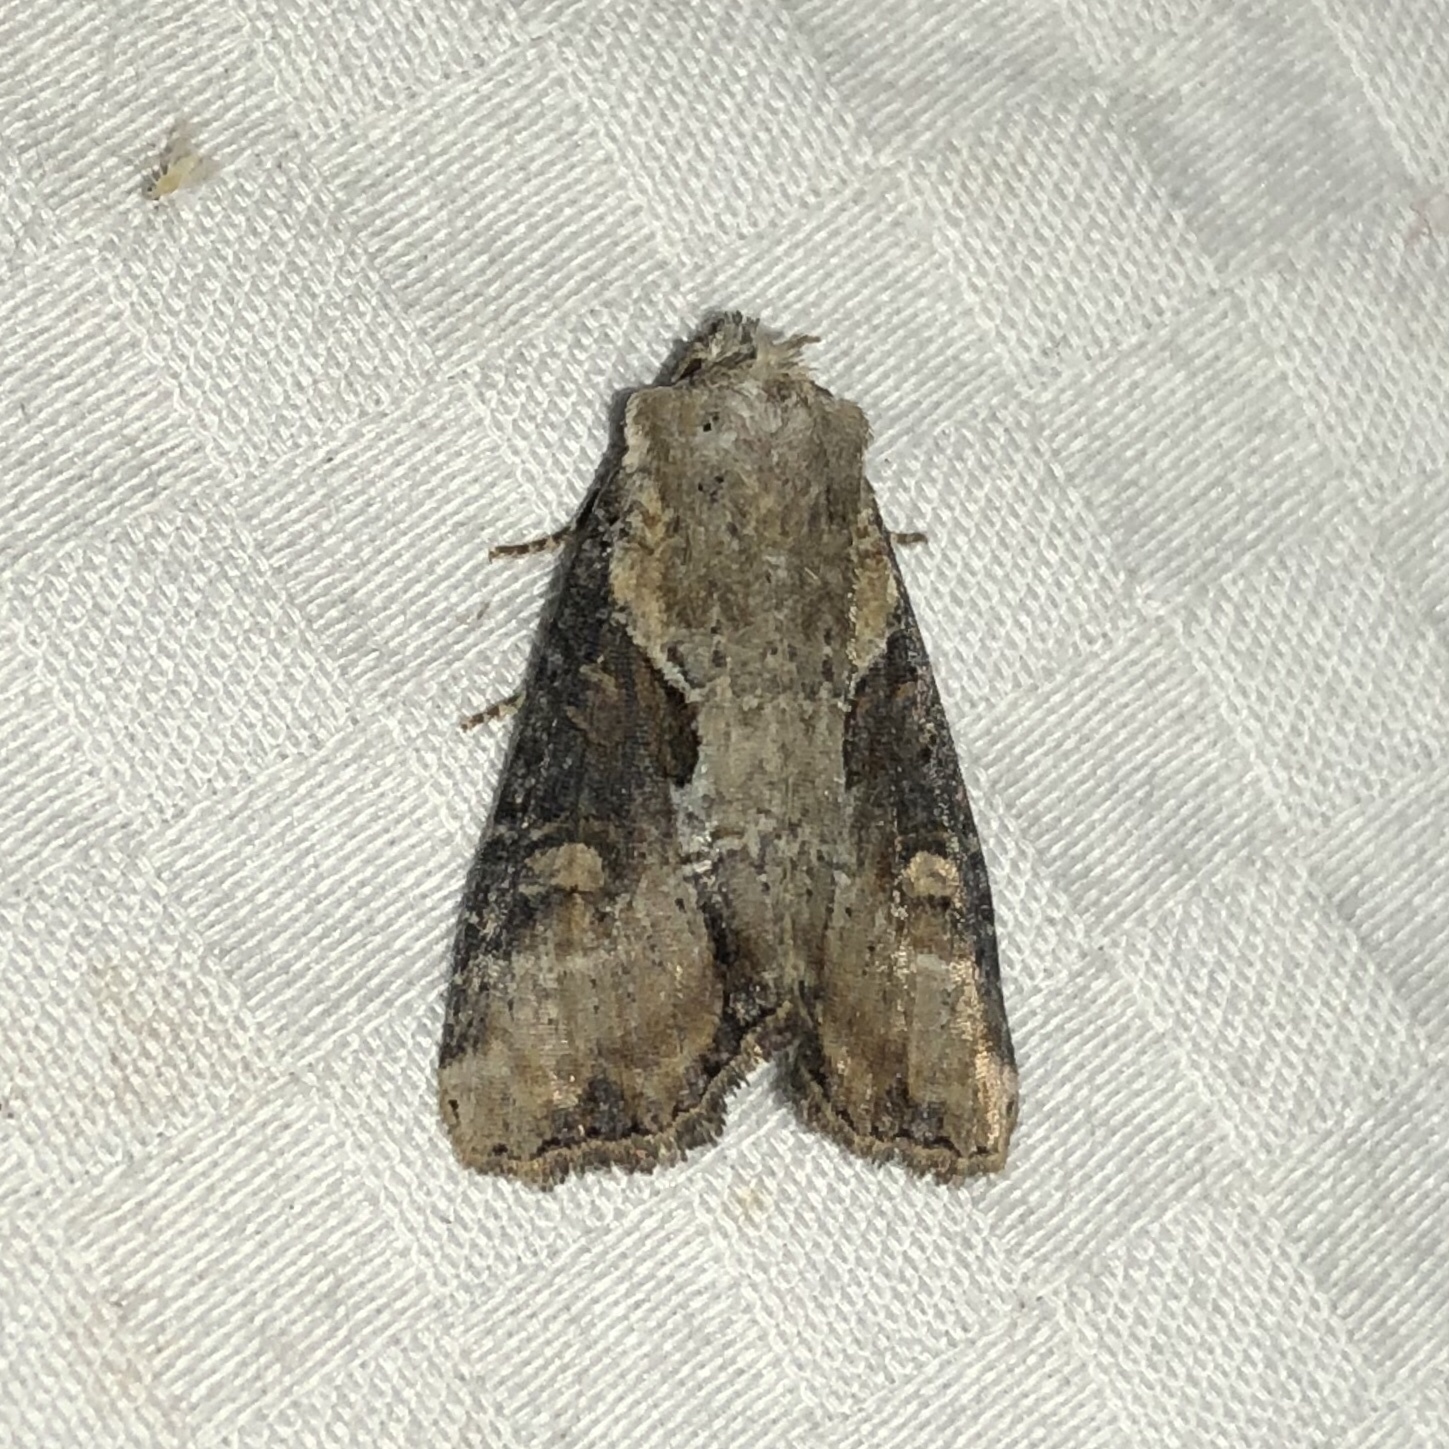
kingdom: Animalia
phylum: Arthropoda
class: Insecta
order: Lepidoptera
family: Noctuidae
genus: Lateroligia
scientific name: Lateroligia ophiogramma
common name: Double lobed
